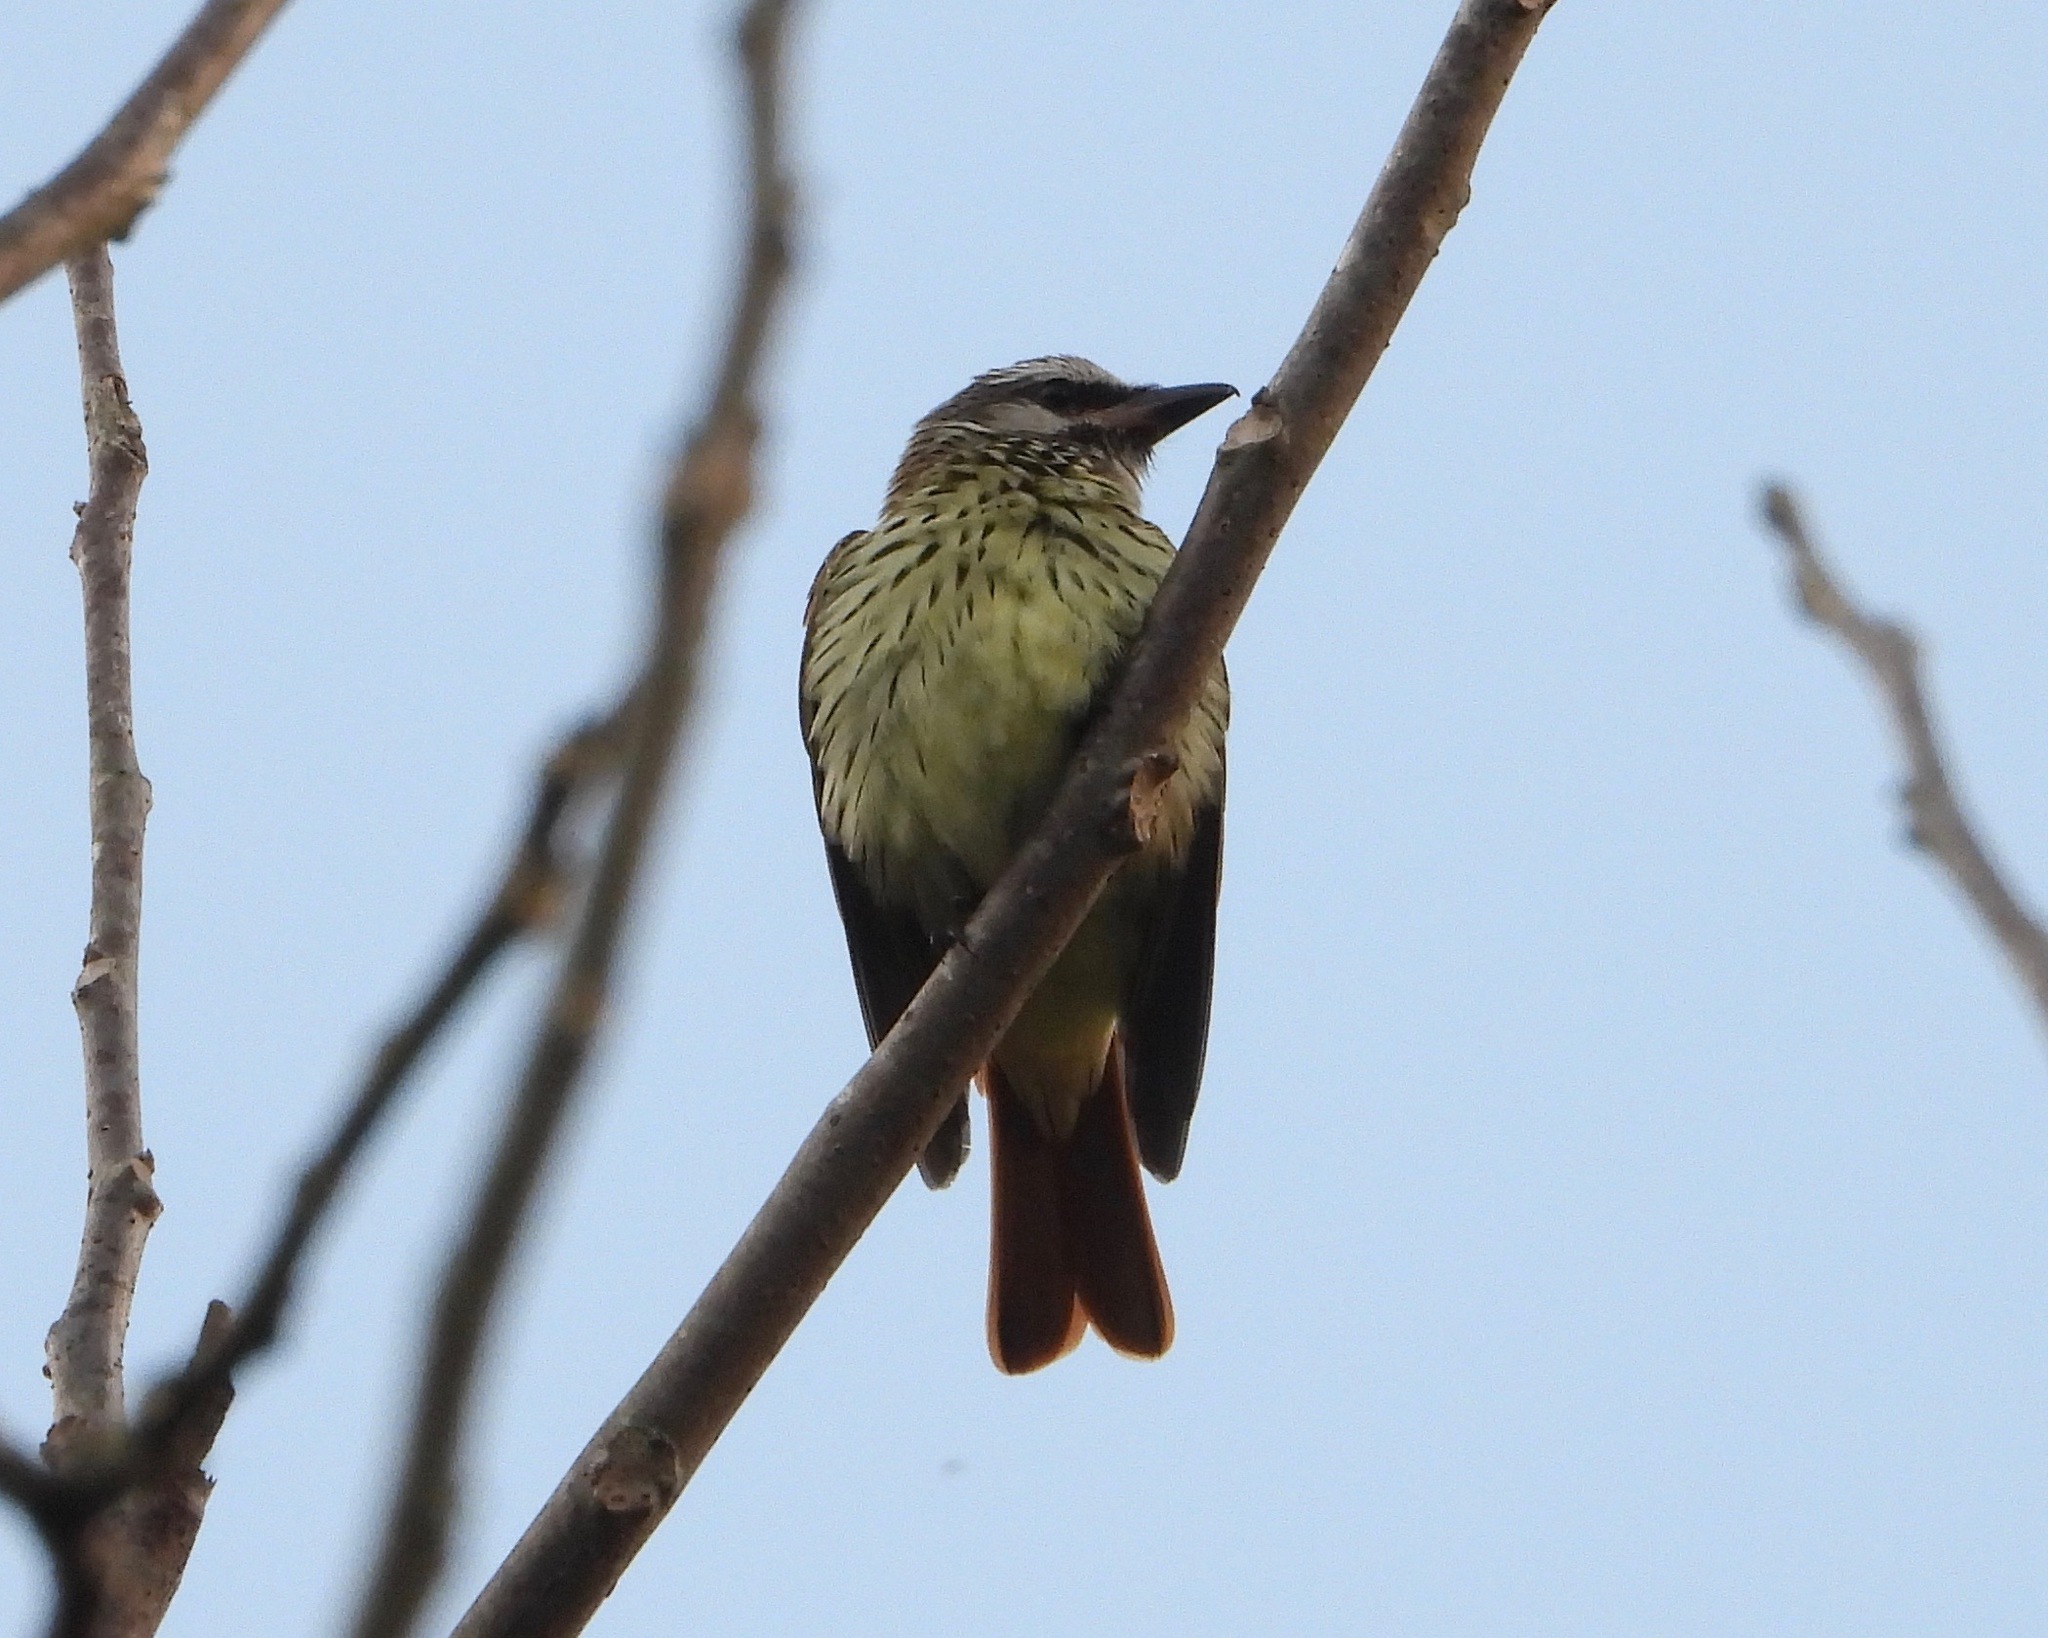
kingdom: Animalia
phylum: Chordata
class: Aves
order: Passeriformes
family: Tyrannidae
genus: Myiodynastes
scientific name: Myiodynastes luteiventris
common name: Sulphur-bellied flycatcher
